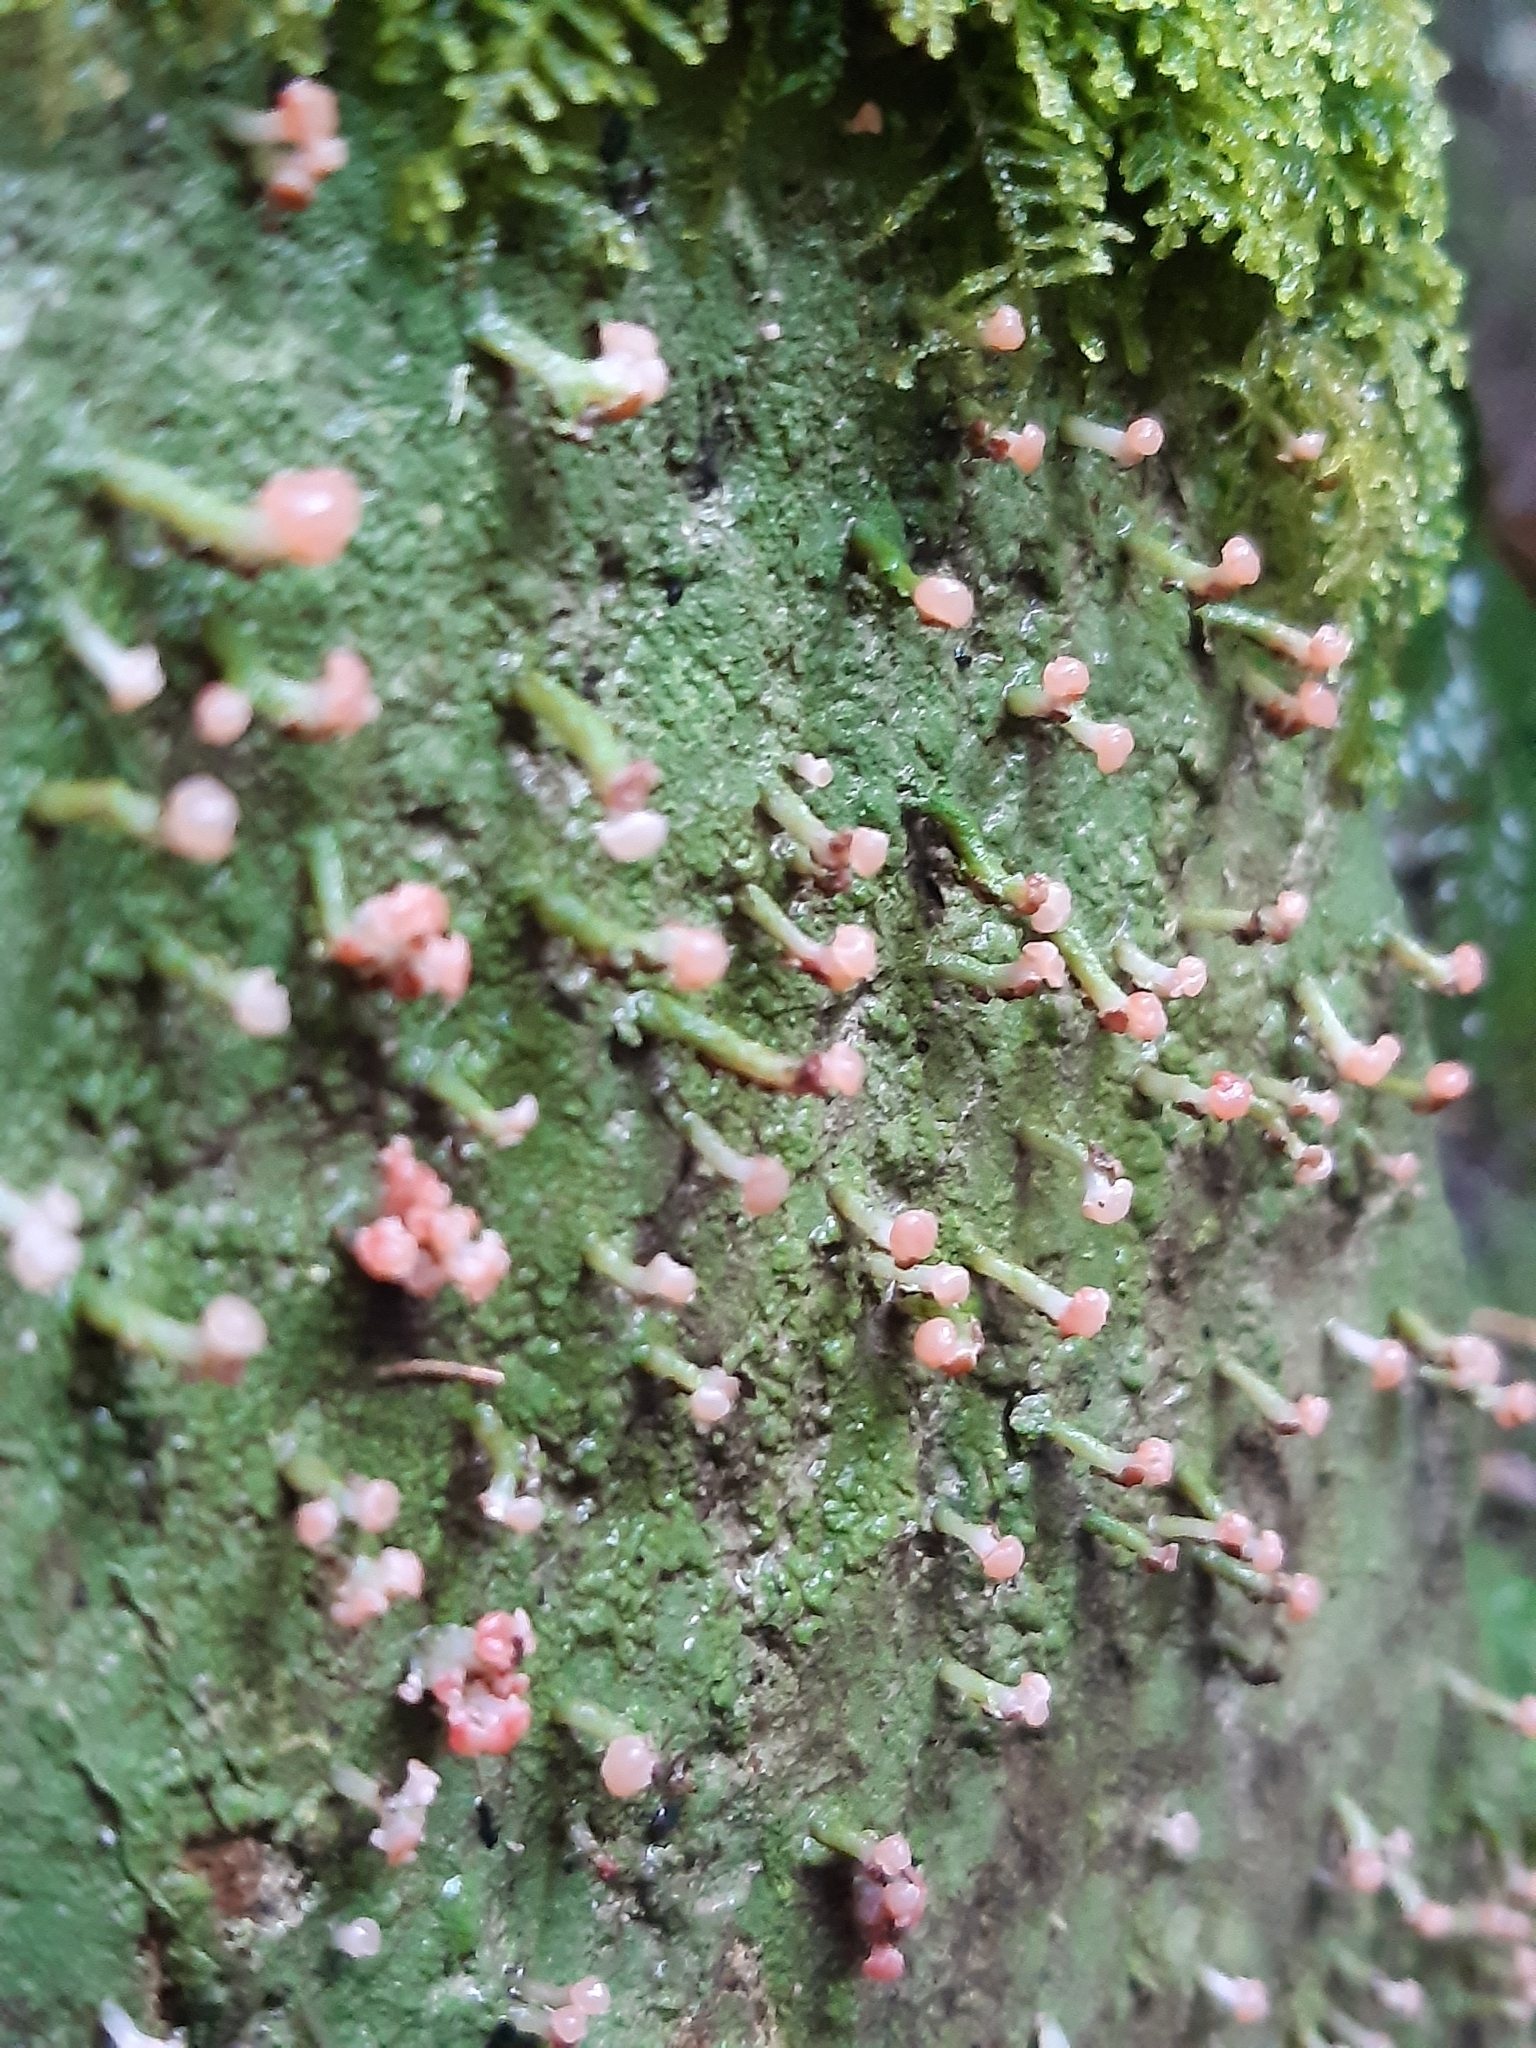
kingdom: Fungi
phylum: Ascomycota
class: Lecanoromycetes
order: Baeomycetales
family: Baeomycetaceae
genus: Baeomyces
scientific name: Baeomyces heteromorphus
